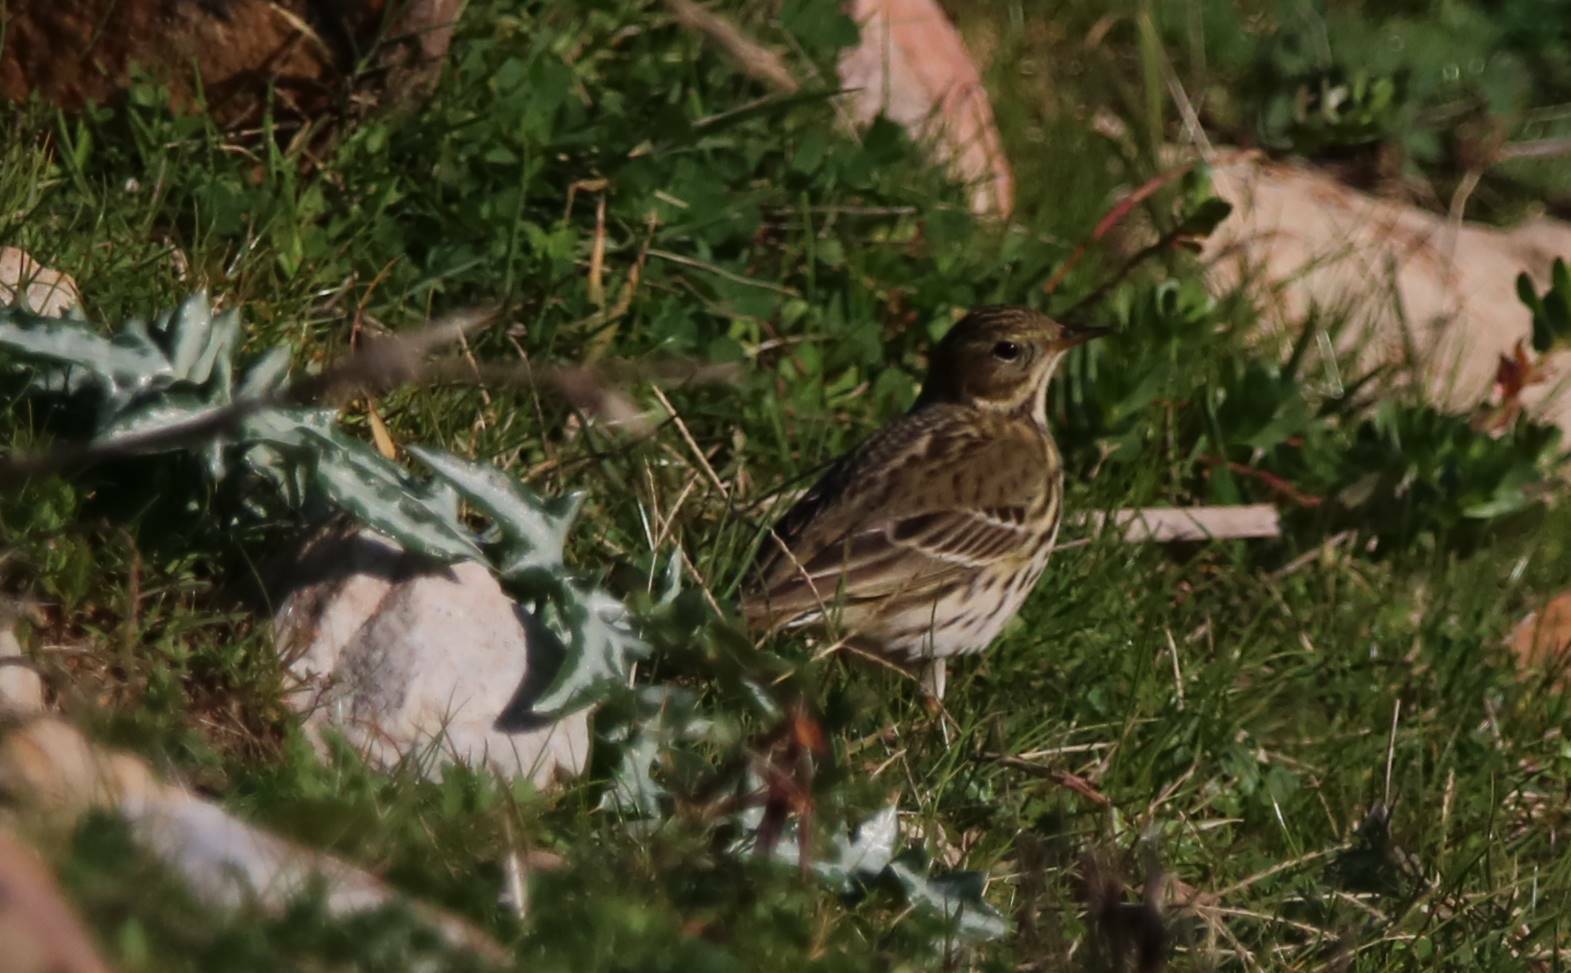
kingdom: Animalia
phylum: Chordata
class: Aves
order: Passeriformes
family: Motacillidae
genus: Anthus
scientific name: Anthus pratensis
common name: Meadow pipit
